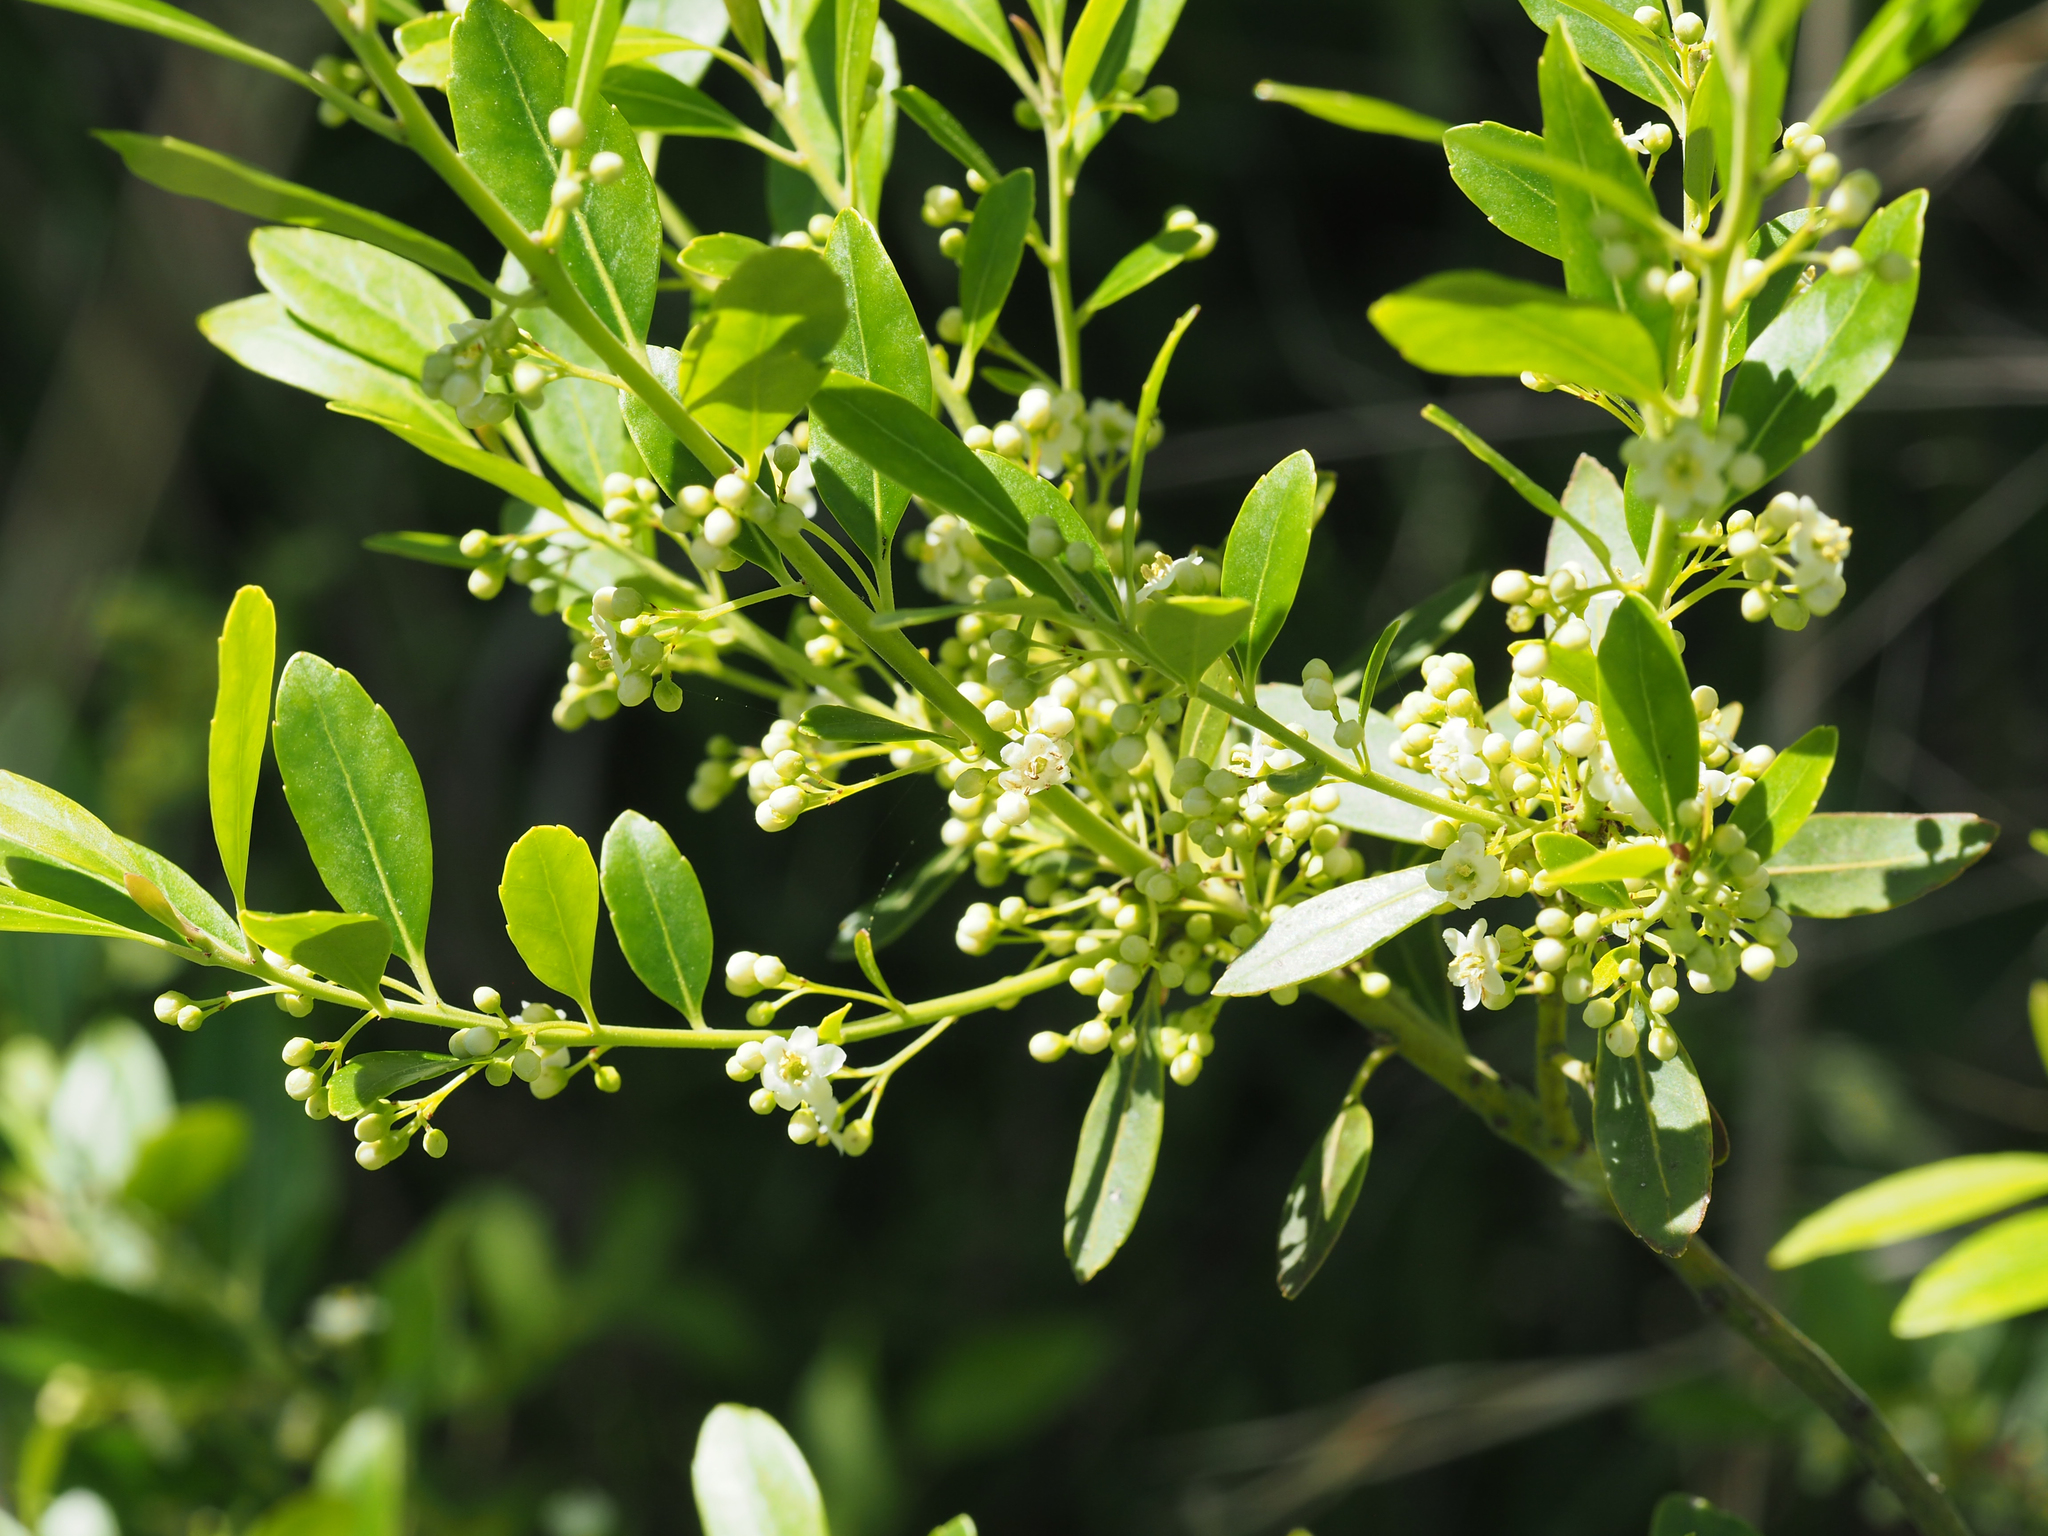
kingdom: Plantae
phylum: Tracheophyta
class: Magnoliopsida
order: Aquifoliales
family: Aquifoliaceae
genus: Ilex
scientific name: Ilex glabra
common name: Bitter gallberry
